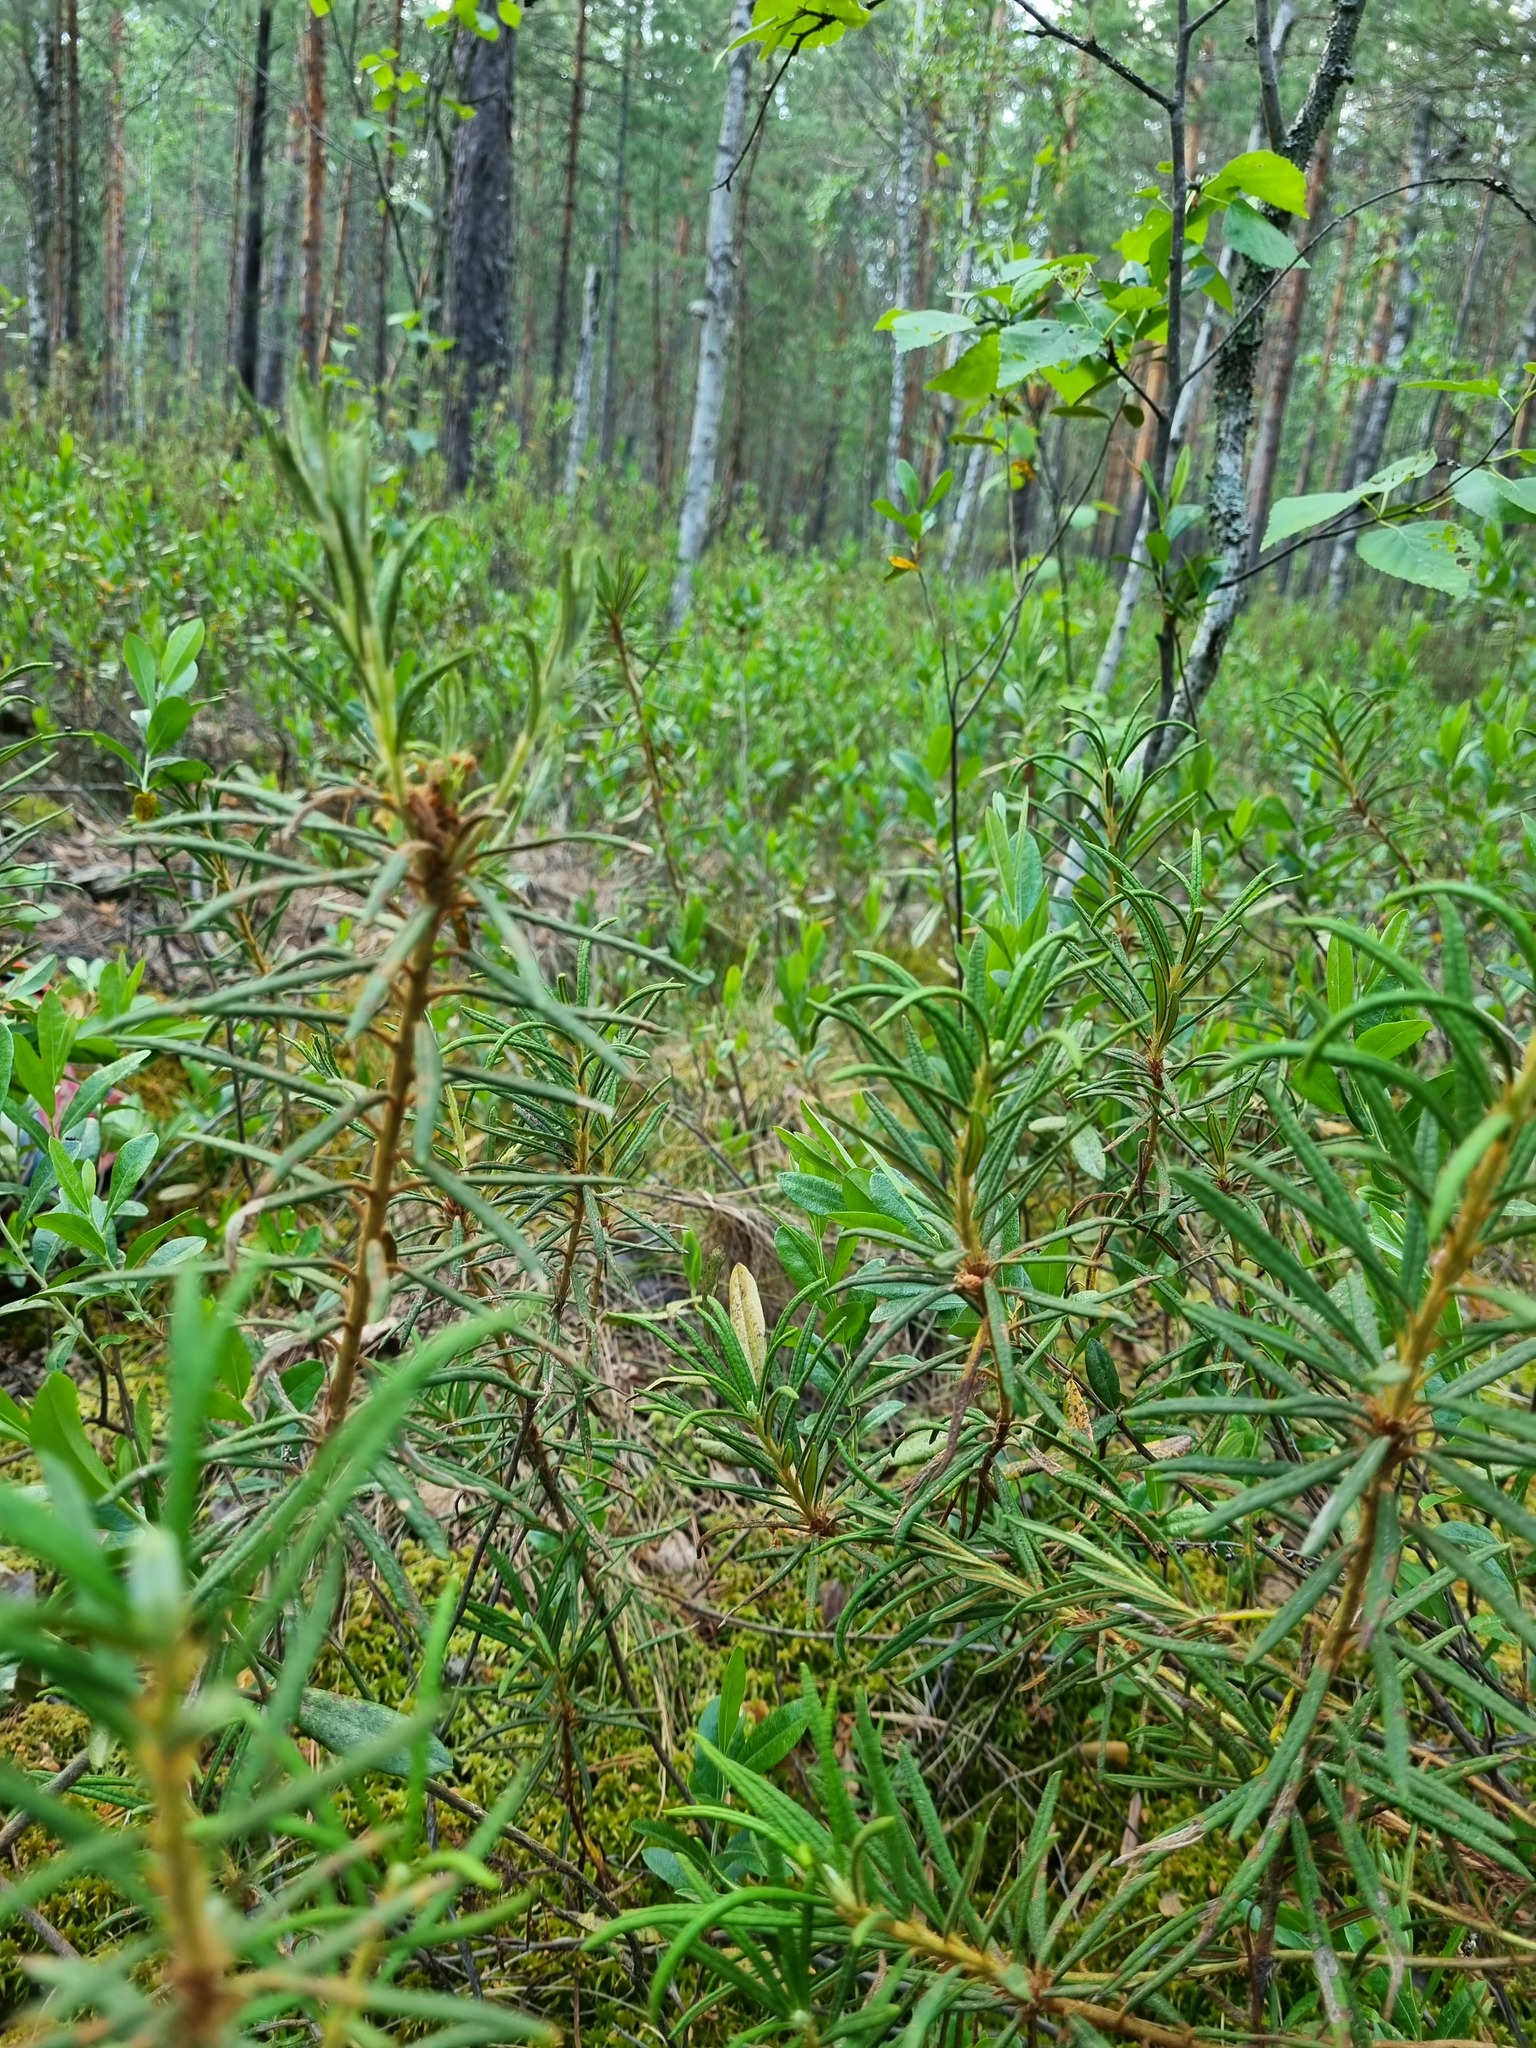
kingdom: Plantae
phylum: Tracheophyta
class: Magnoliopsida
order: Ericales
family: Ericaceae
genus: Rhododendron
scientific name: Rhododendron tomentosum
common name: Marsh labrador tea
